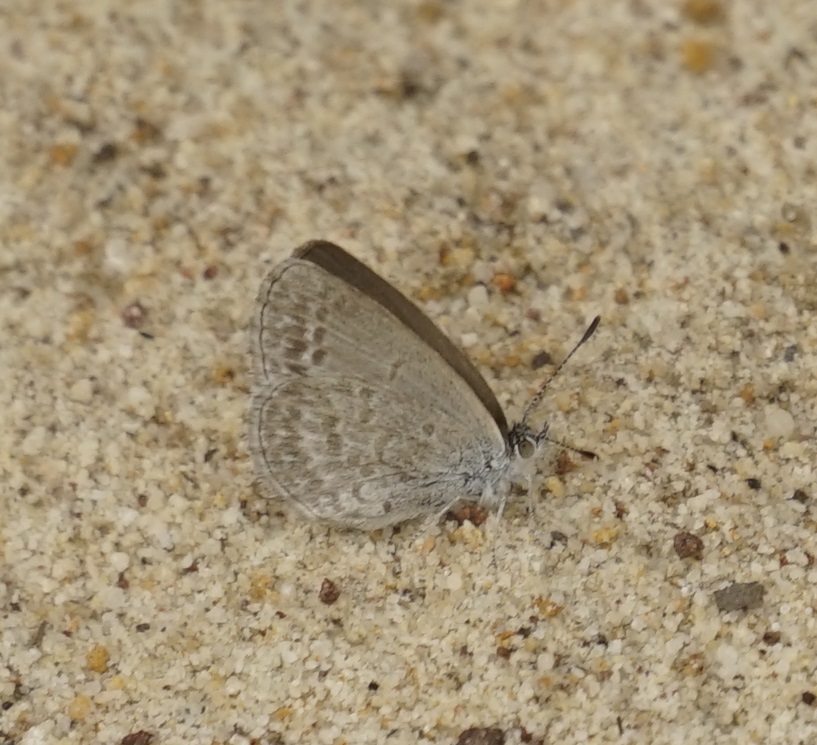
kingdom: Animalia
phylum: Arthropoda
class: Insecta
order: Lepidoptera
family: Lycaenidae
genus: Zizina
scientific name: Zizina labradus
